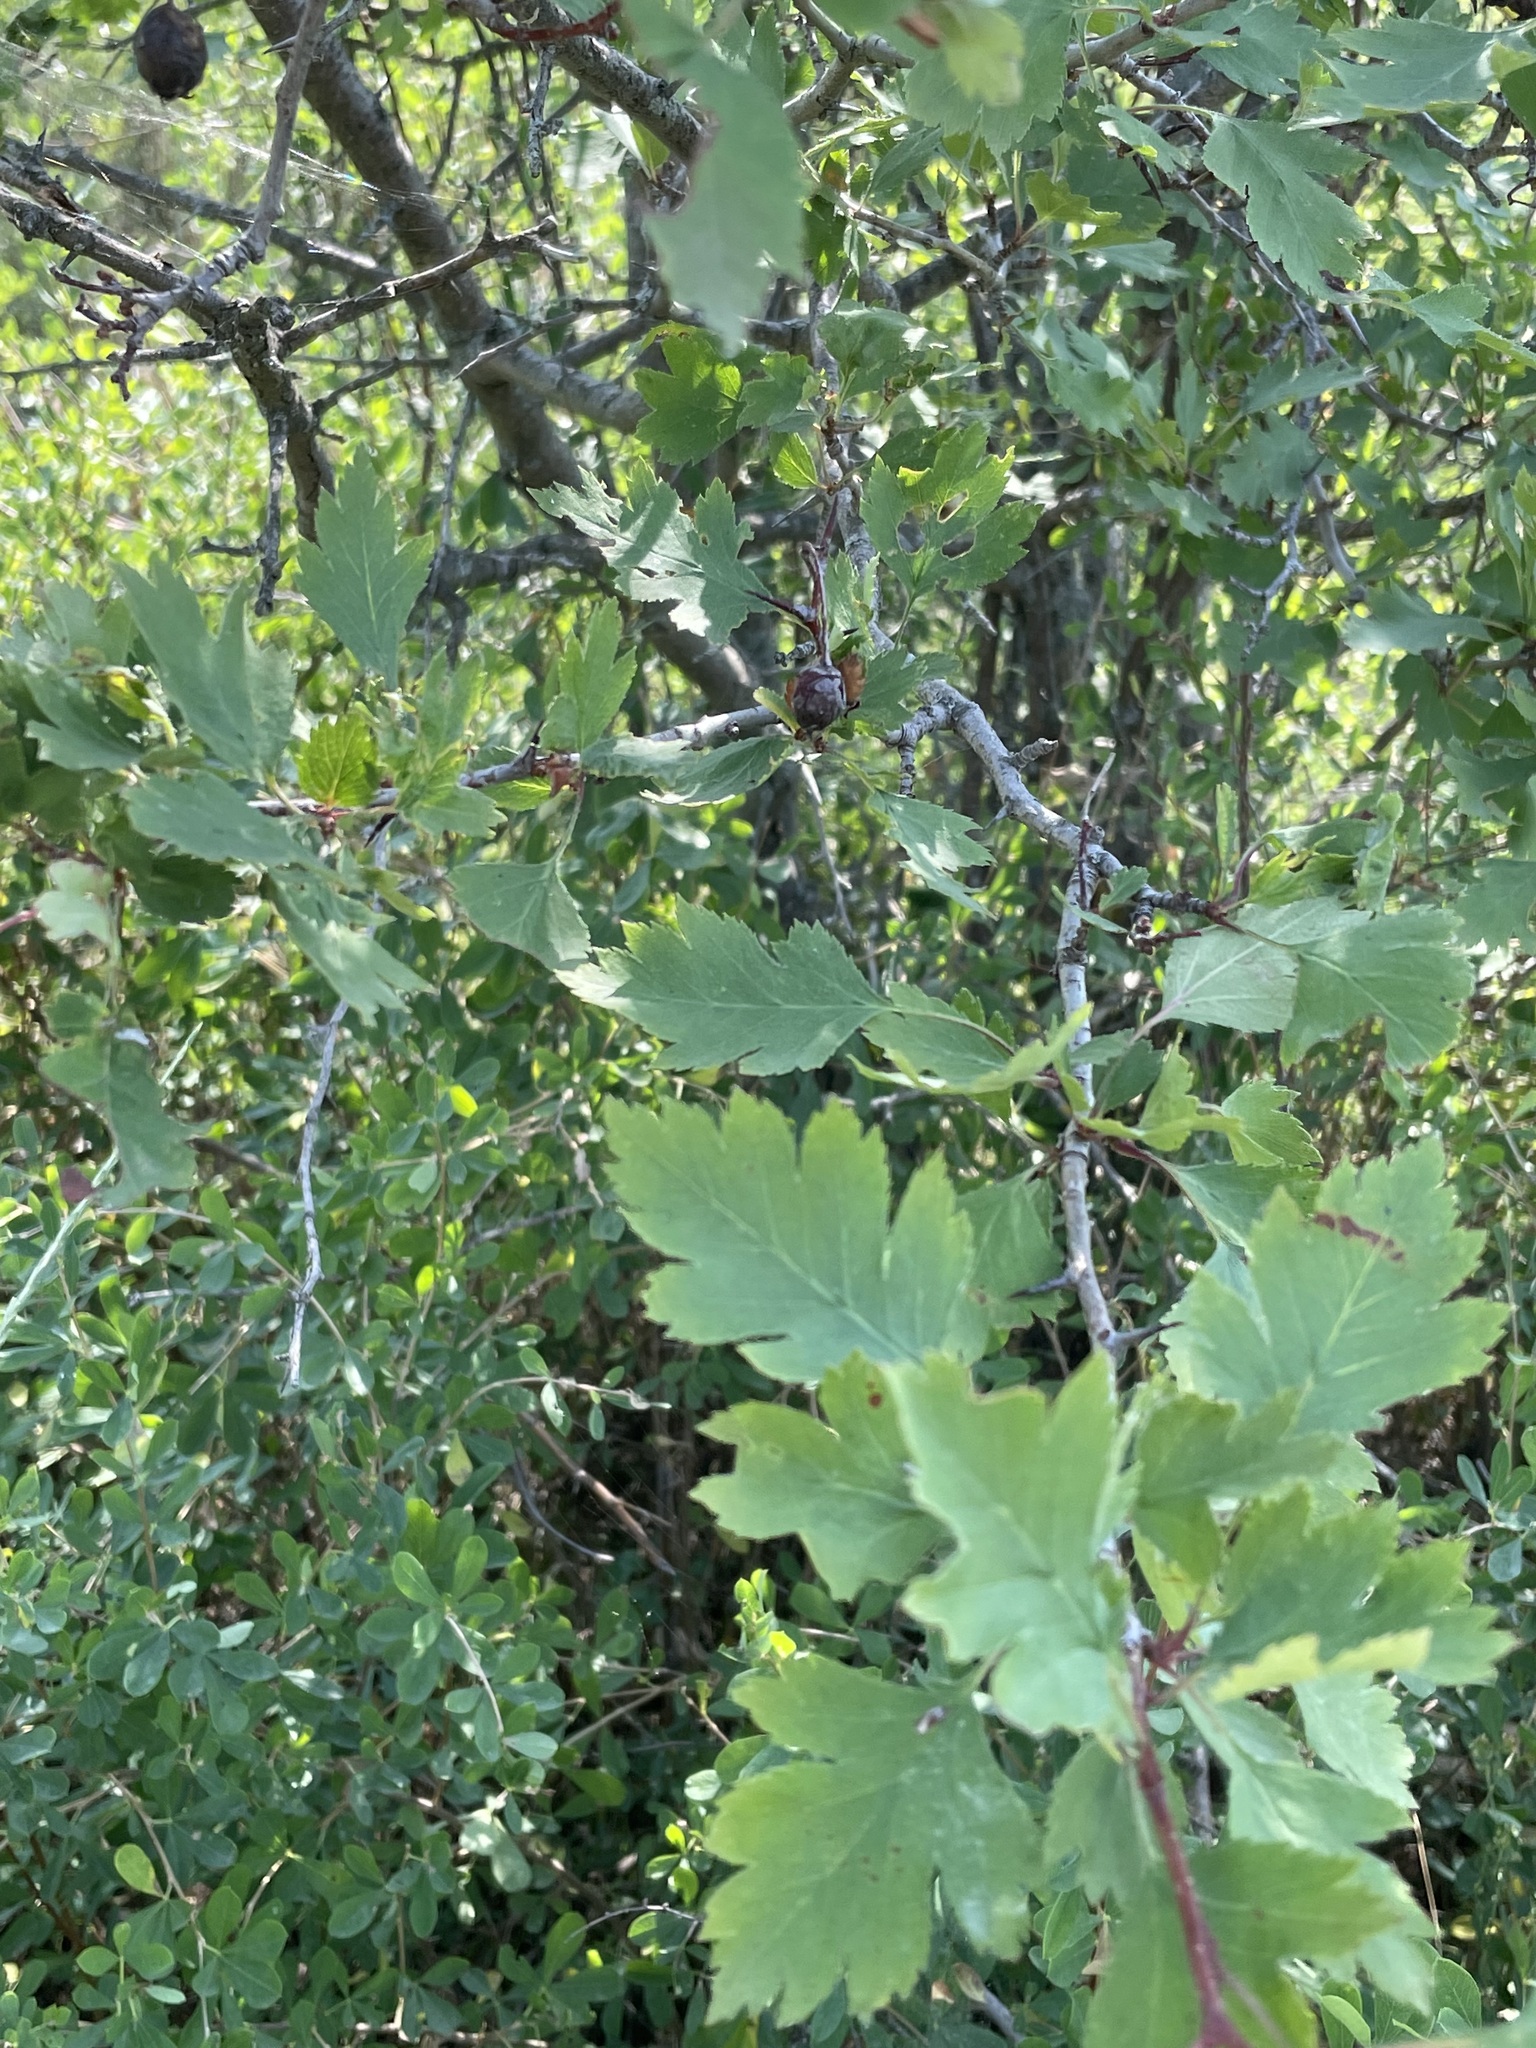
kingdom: Plantae
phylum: Tracheophyta
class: Magnoliopsida
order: Rosales
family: Rosaceae
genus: Crataegus
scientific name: Crataegus sanguinea
